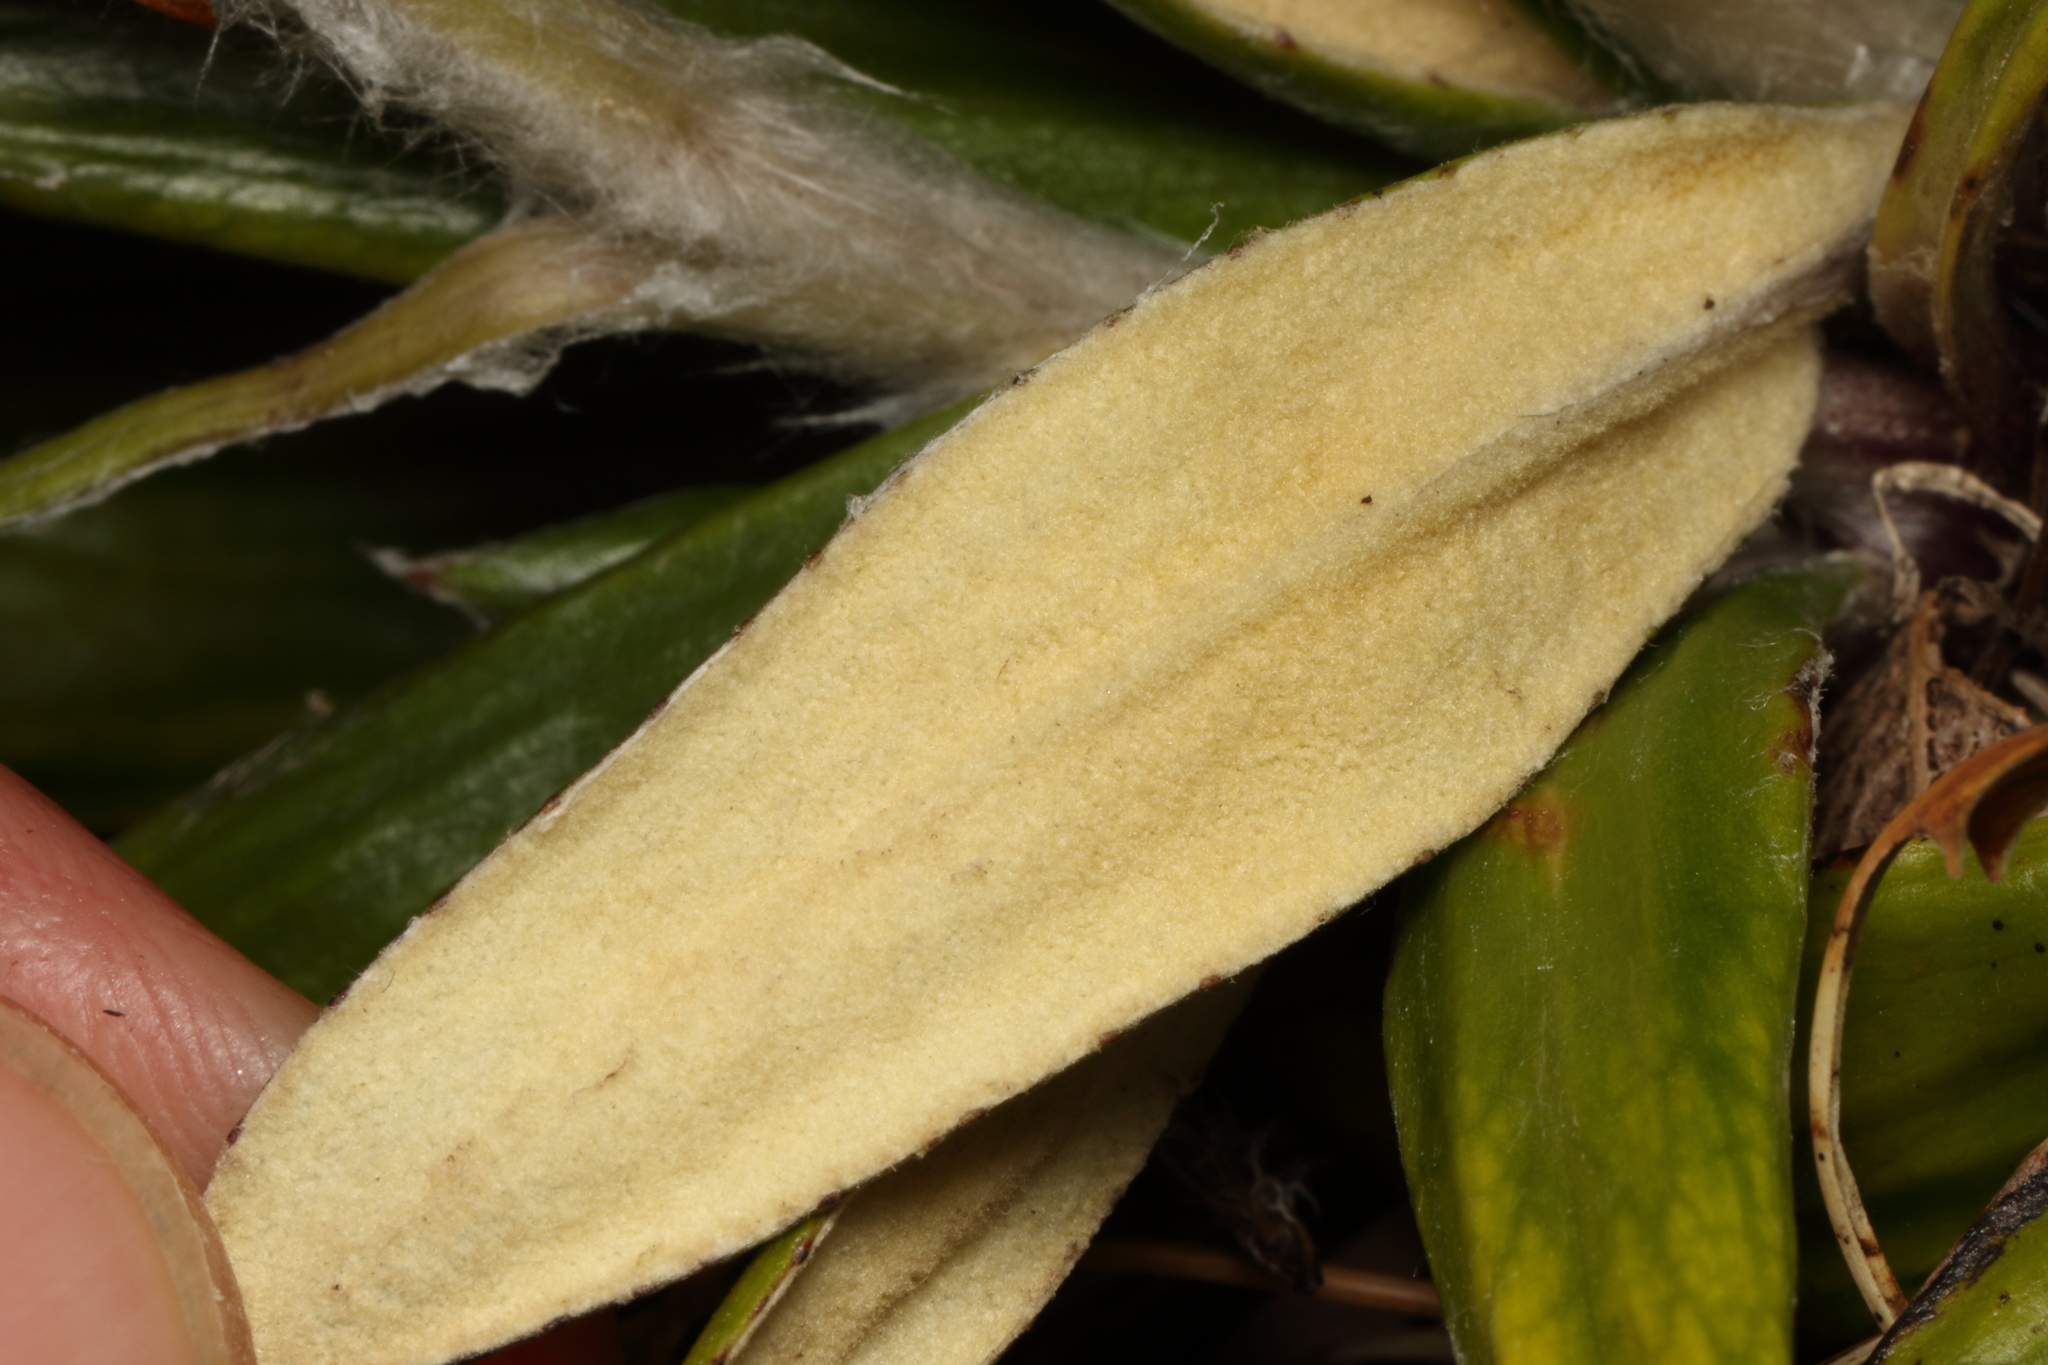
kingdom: Plantae
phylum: Tracheophyta
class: Magnoliopsida
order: Asterales
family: Asteraceae
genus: Celmisia
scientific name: Celmisia spectabilis
